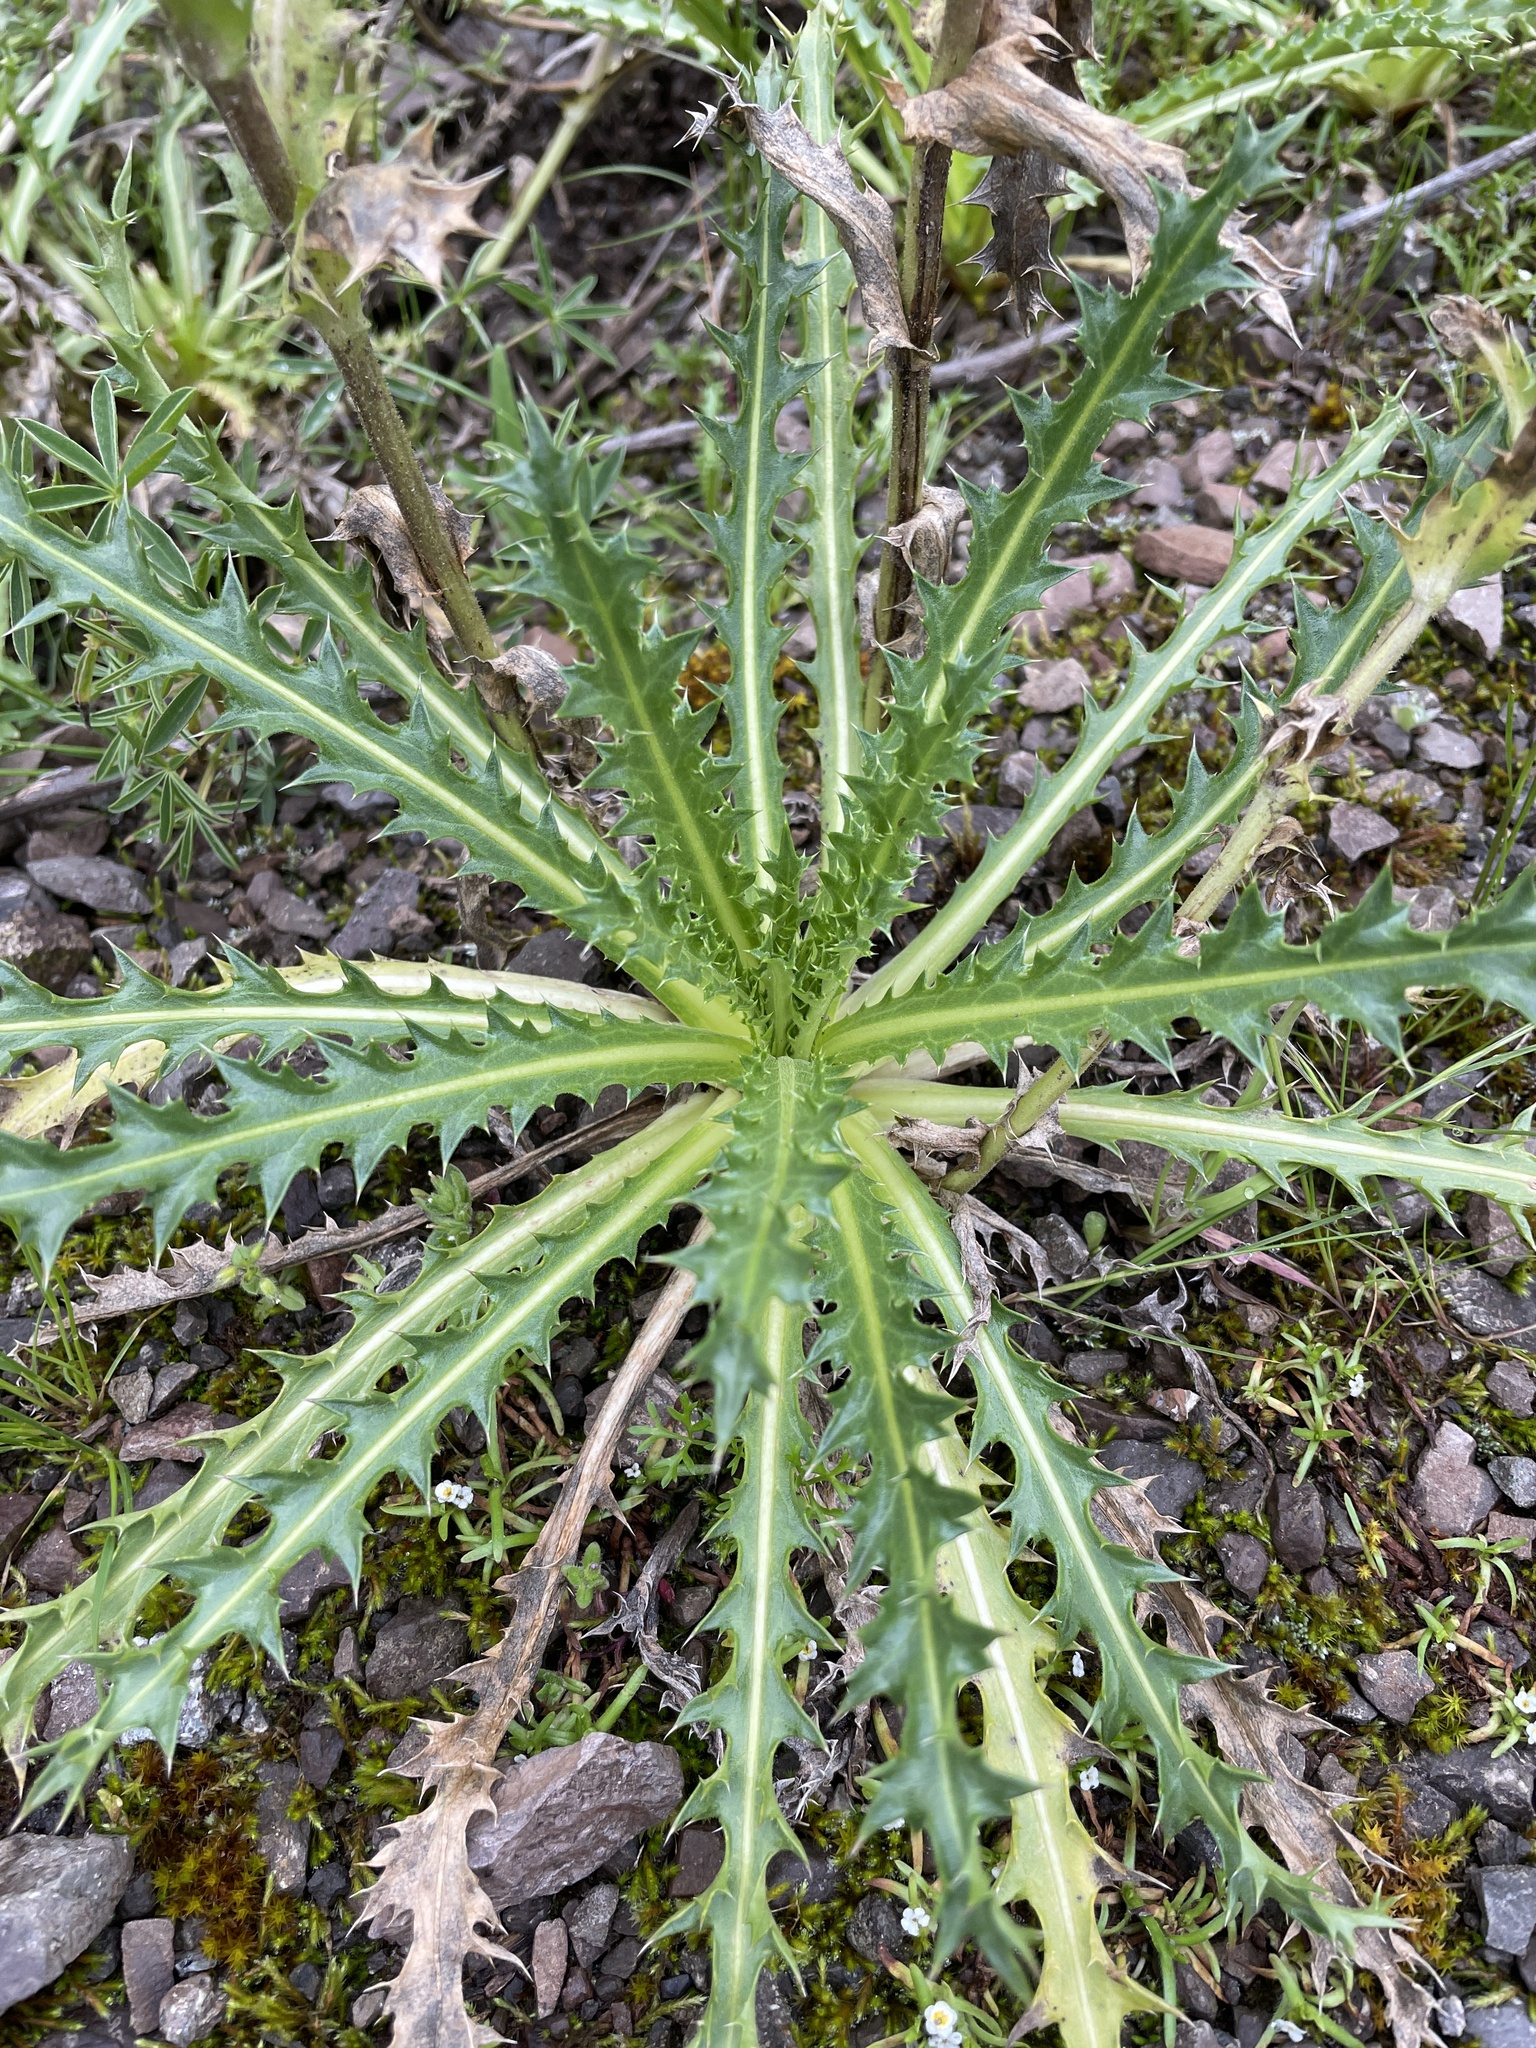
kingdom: Plantae
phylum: Tracheophyta
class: Magnoliopsida
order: Asterales
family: Asteraceae
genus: Perezia
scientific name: Perezia multiflora
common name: Perezia
